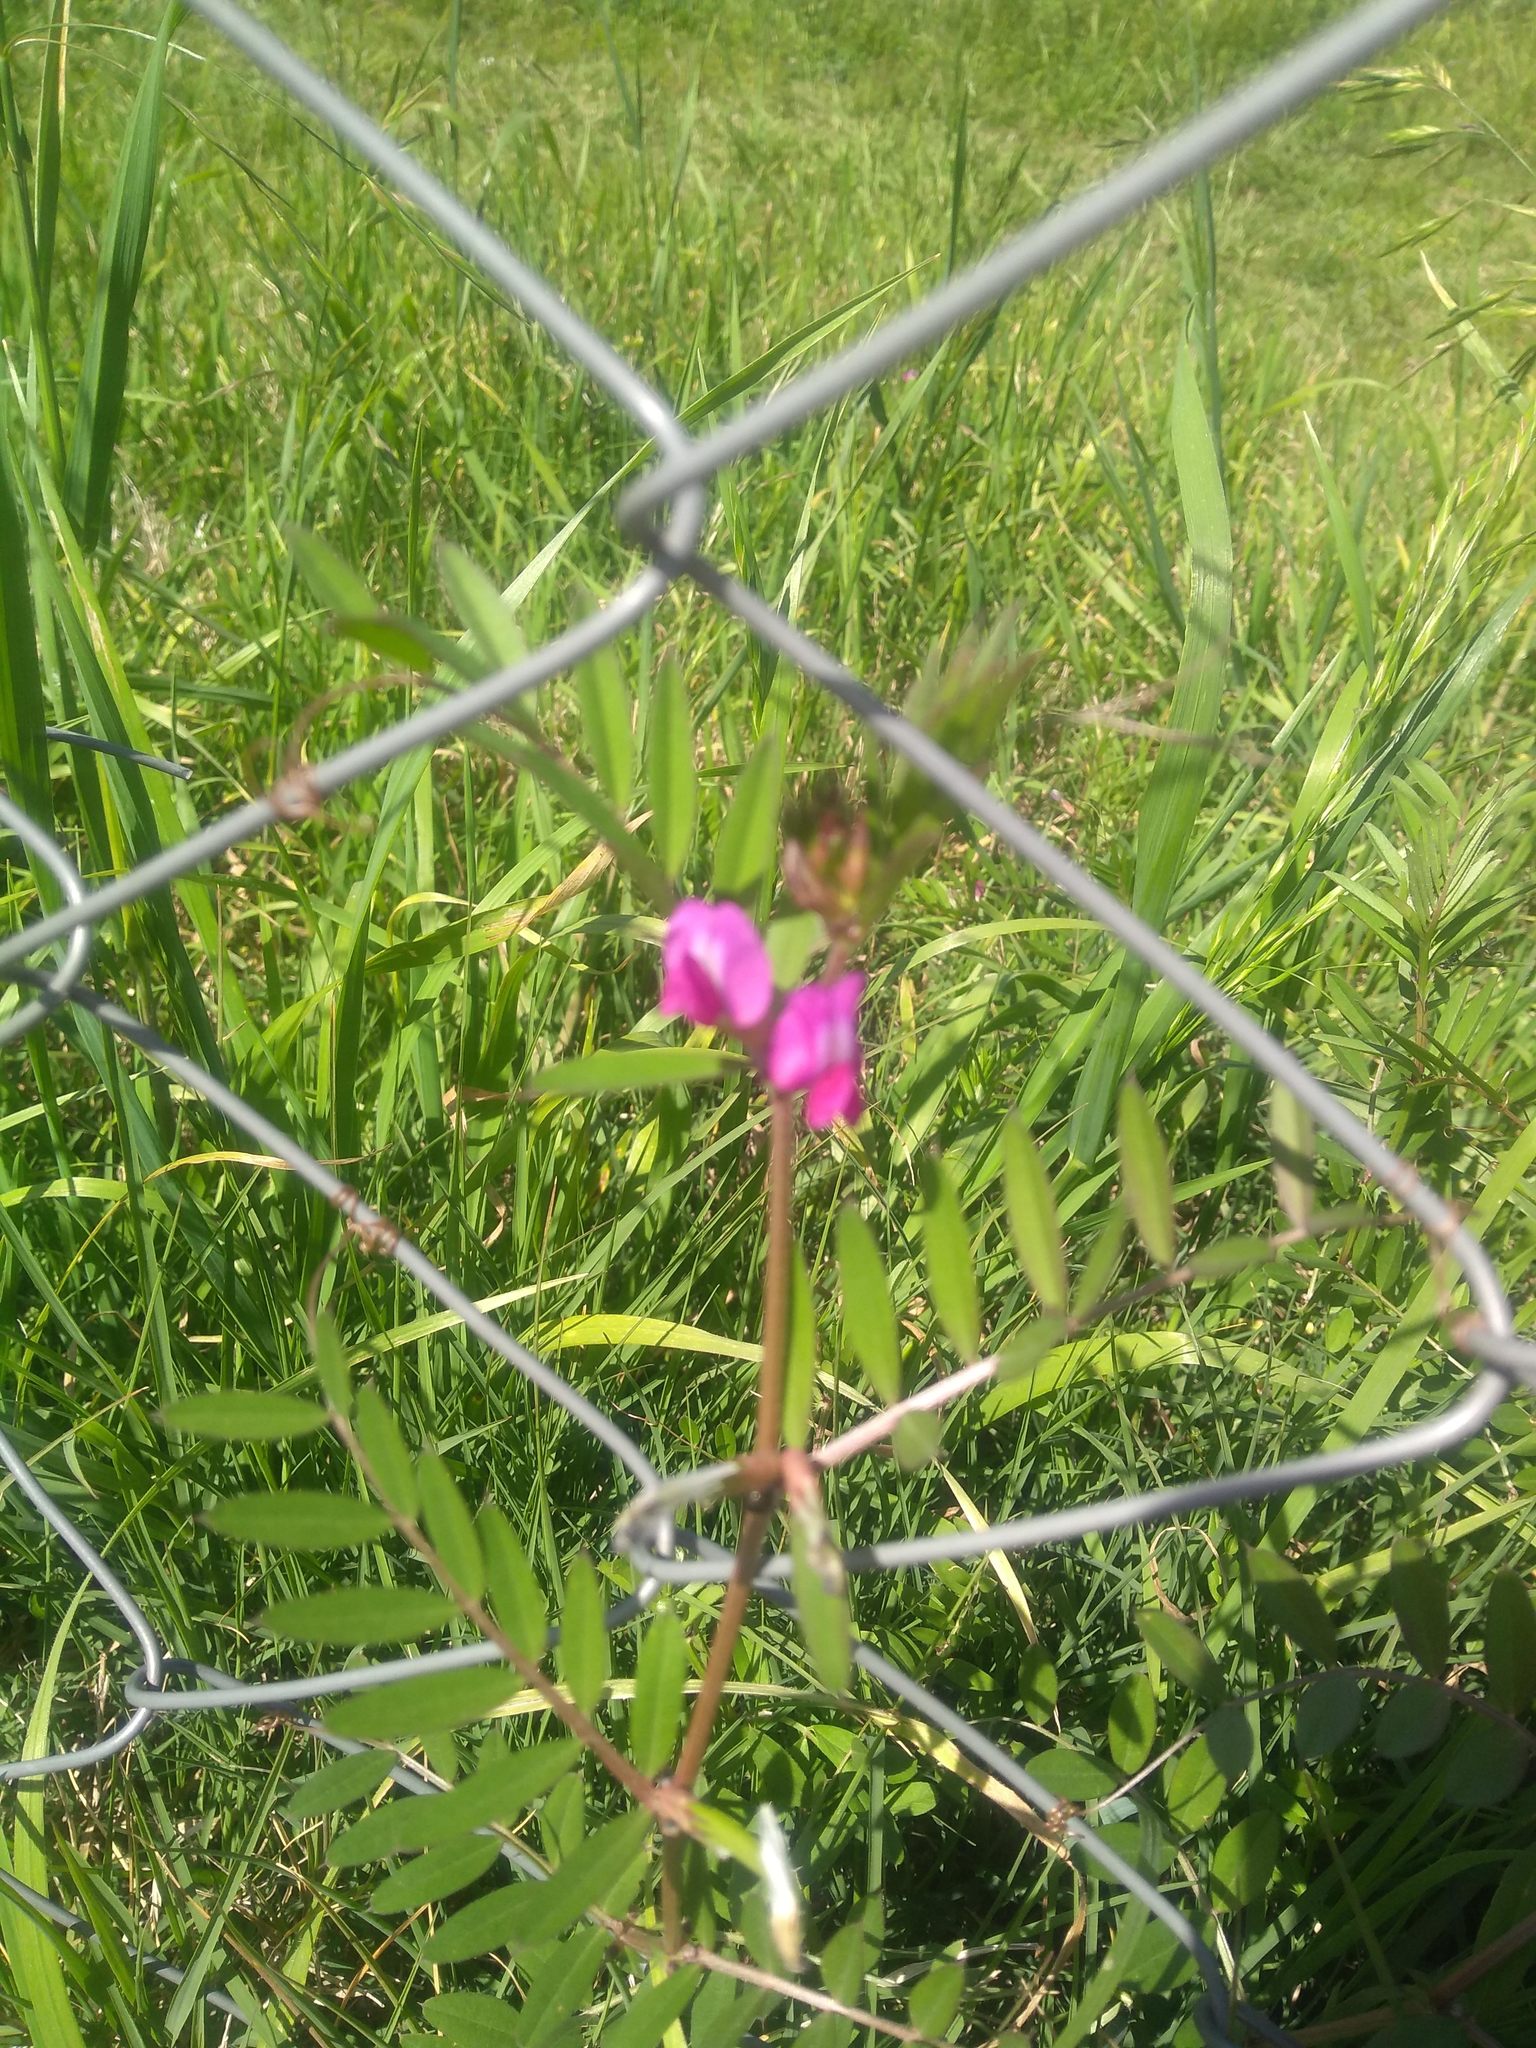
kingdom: Plantae
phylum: Tracheophyta
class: Magnoliopsida
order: Fabales
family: Fabaceae
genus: Vicia
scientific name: Vicia sativa
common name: Garden vetch
